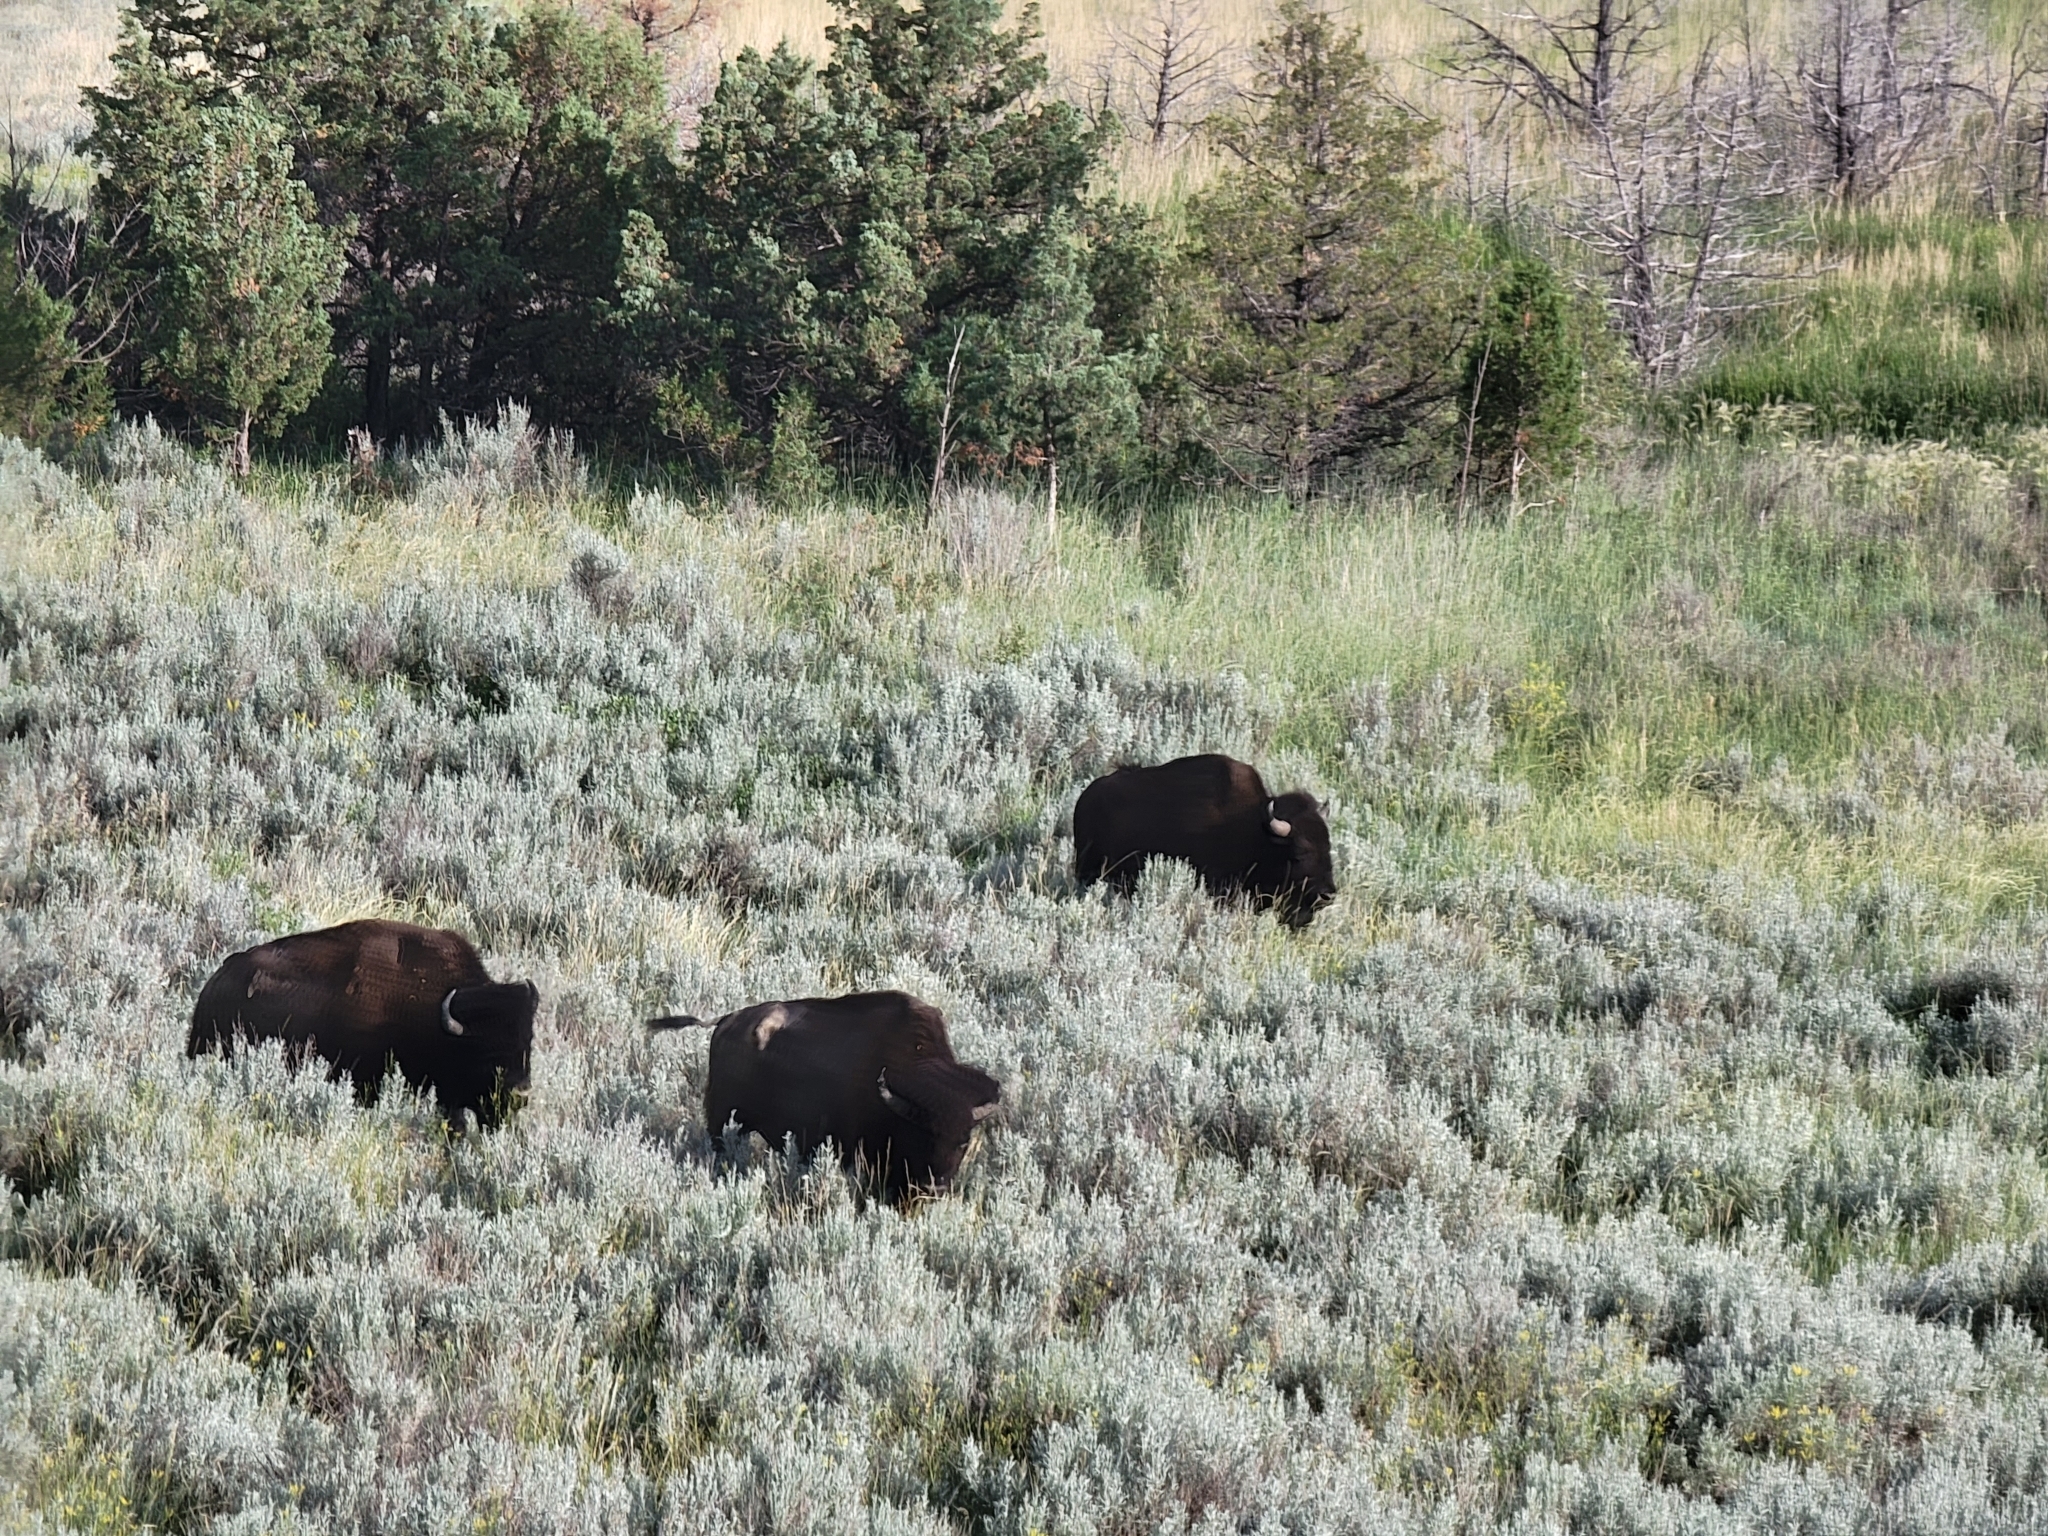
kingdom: Animalia
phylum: Chordata
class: Mammalia
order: Artiodactyla
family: Bovidae
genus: Bison
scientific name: Bison bison
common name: American bison
